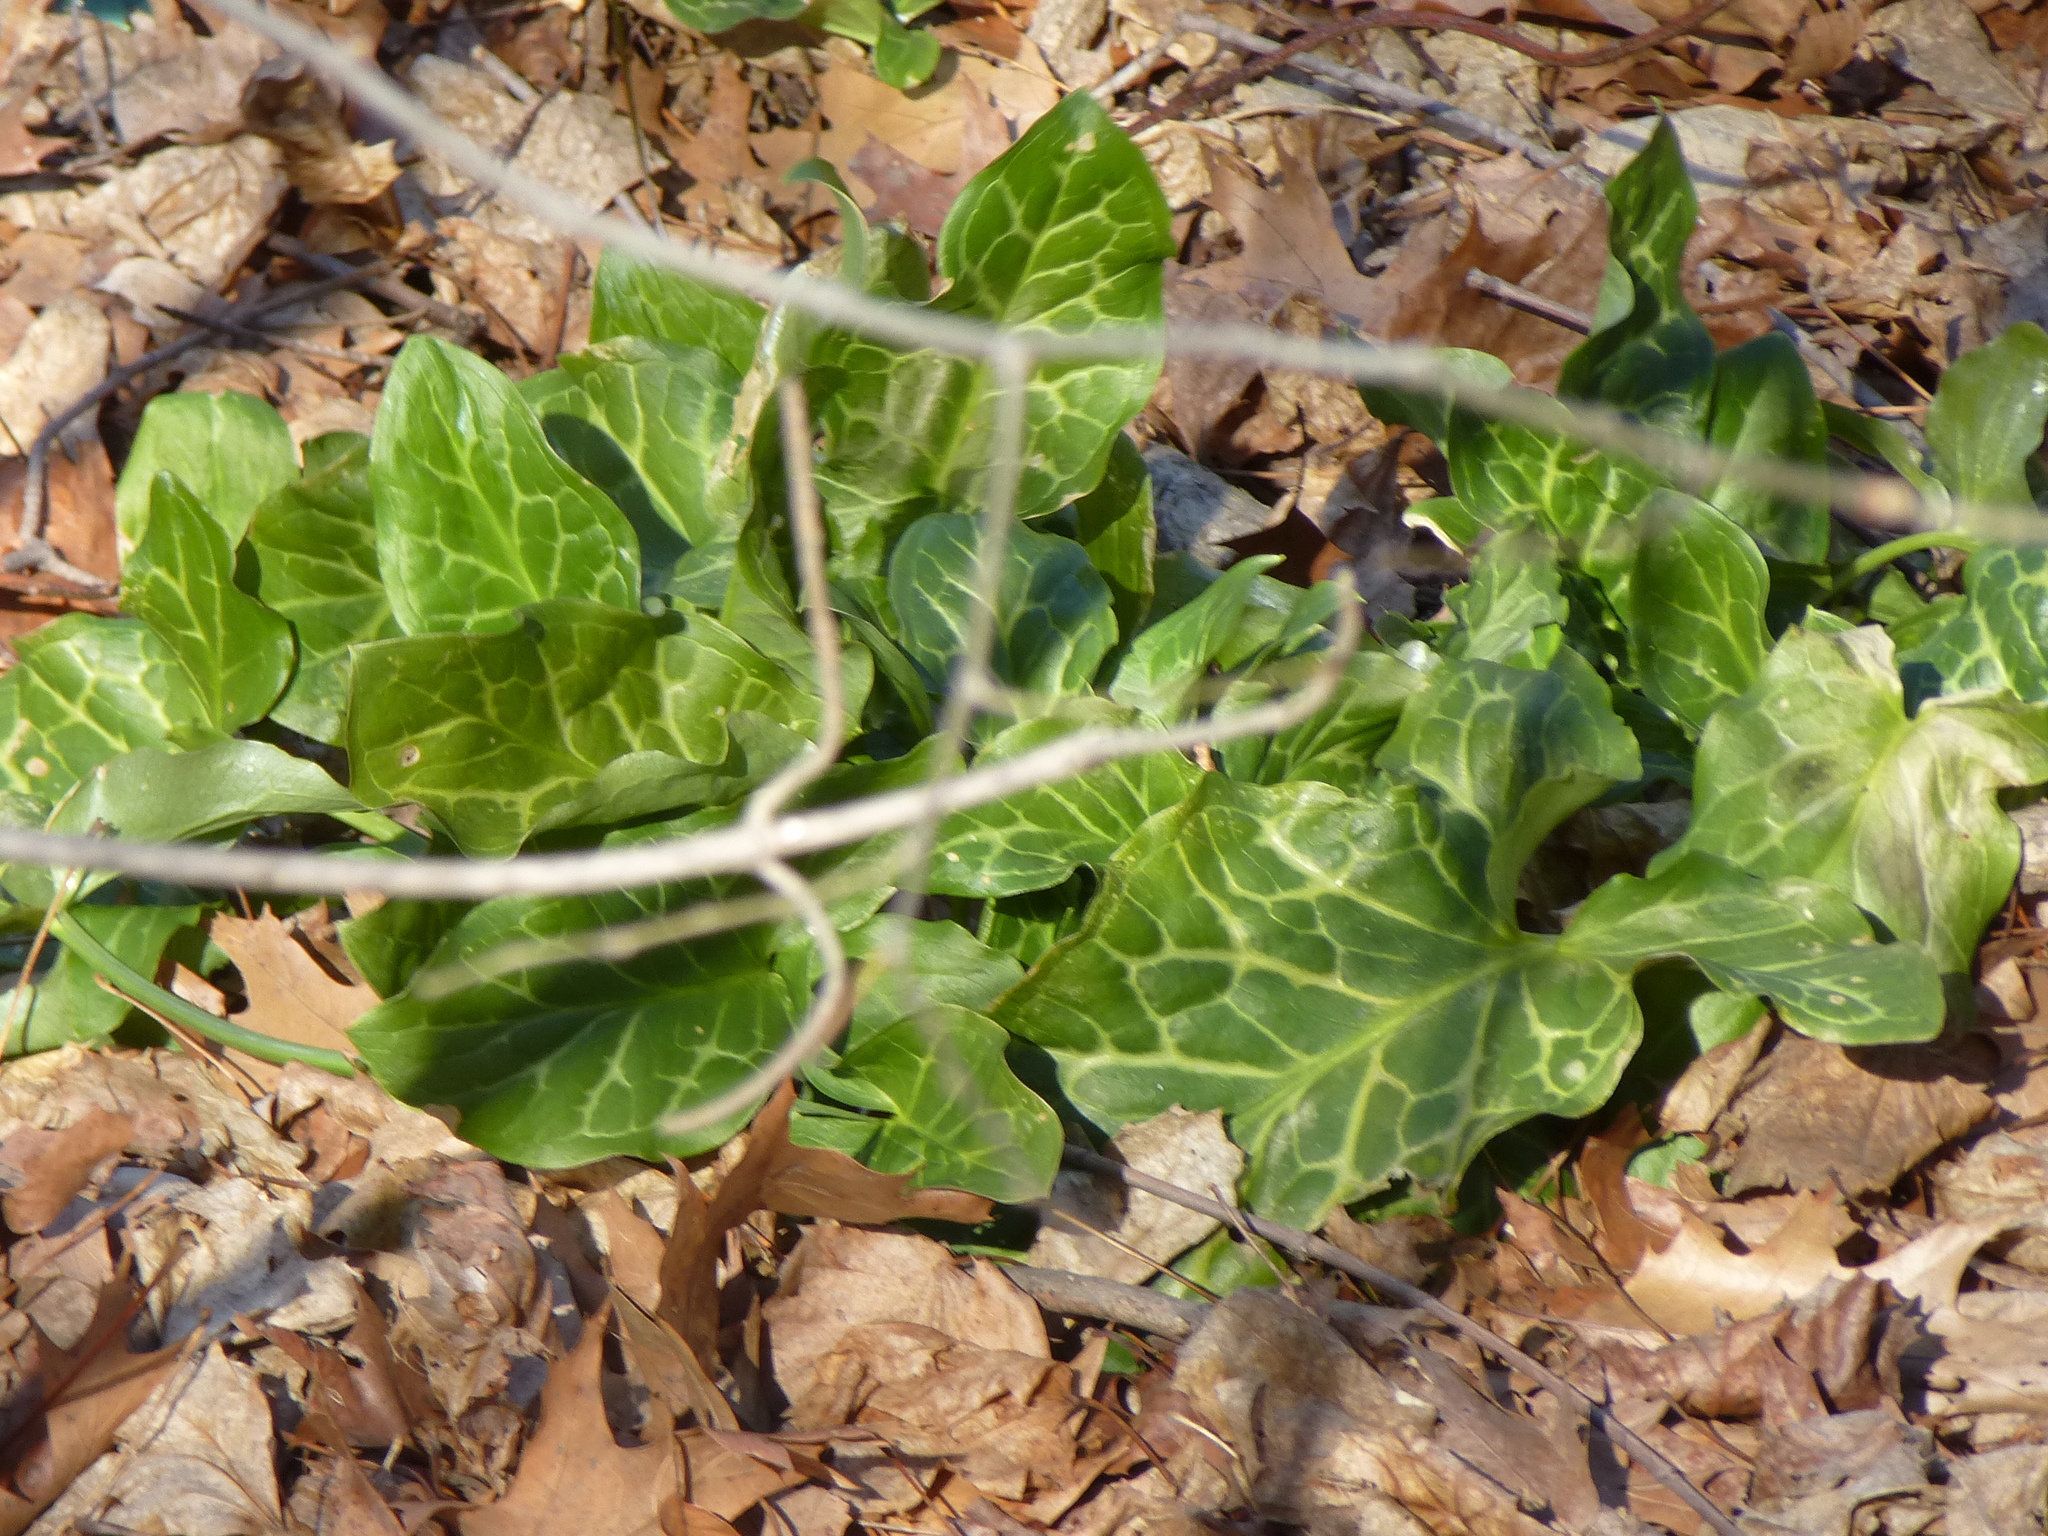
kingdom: Plantae
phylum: Tracheophyta
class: Liliopsida
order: Alismatales
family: Araceae
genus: Arum
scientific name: Arum italicum
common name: Italian lords-and-ladies
